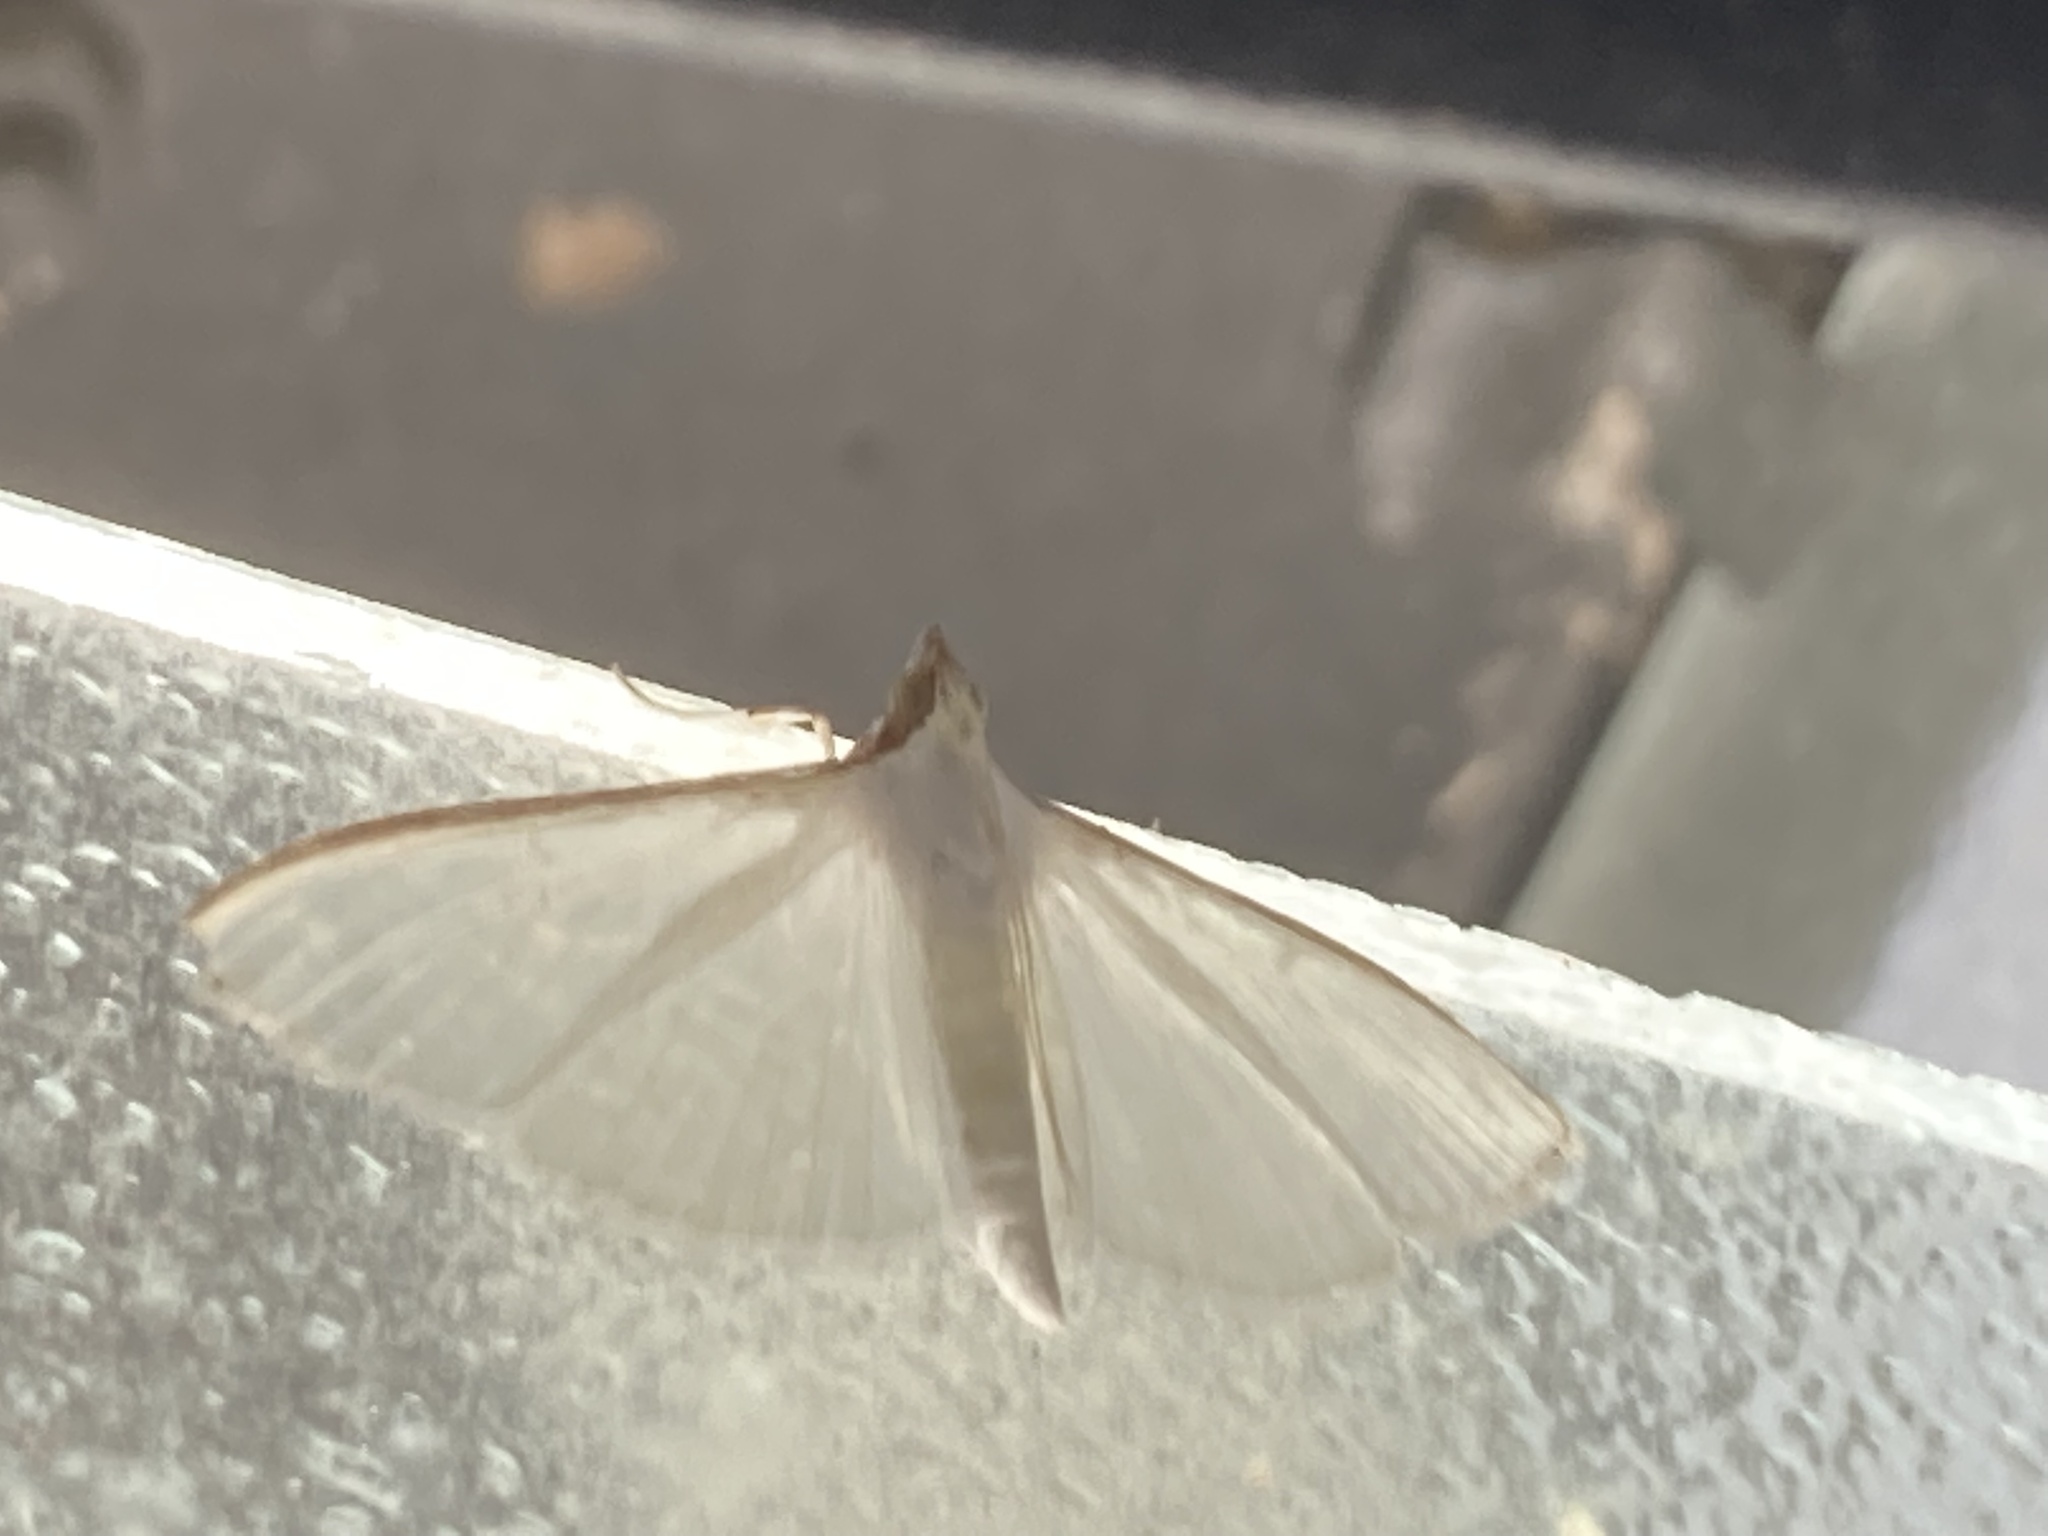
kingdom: Animalia
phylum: Arthropoda
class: Insecta
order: Lepidoptera
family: Crambidae
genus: Palpita
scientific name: Palpita vitrealis
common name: Olive-tree pearl
